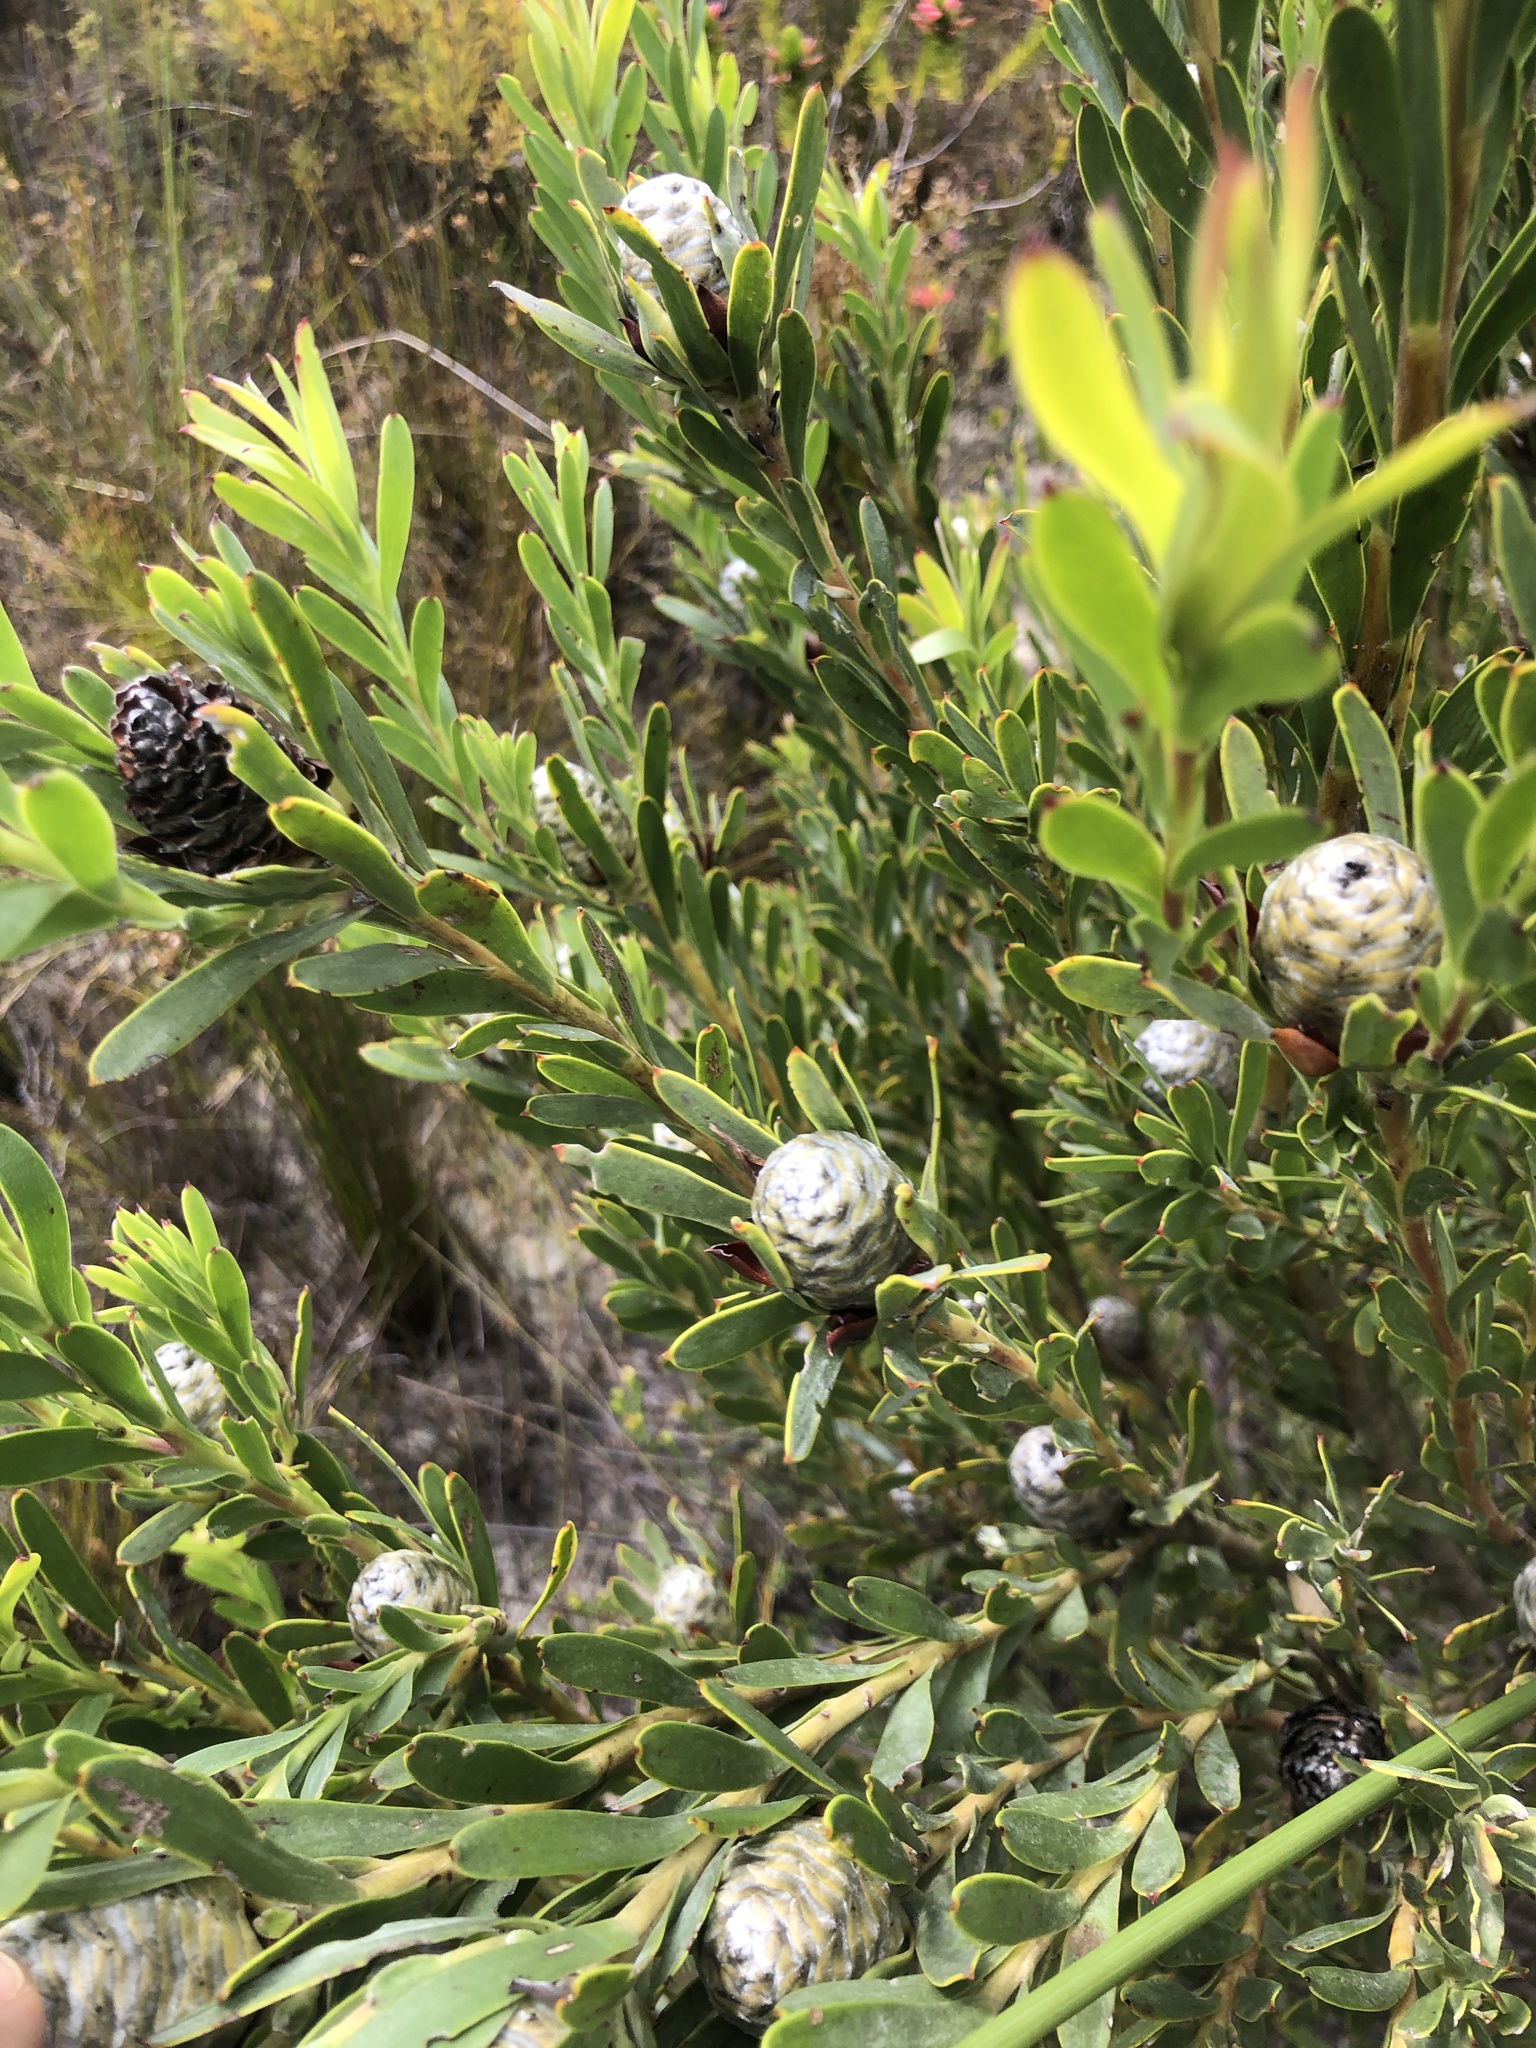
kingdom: Plantae
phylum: Tracheophyta
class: Magnoliopsida
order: Proteales
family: Proteaceae
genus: Leucadendron
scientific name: Leucadendron meridianum
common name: Limestone conebush
